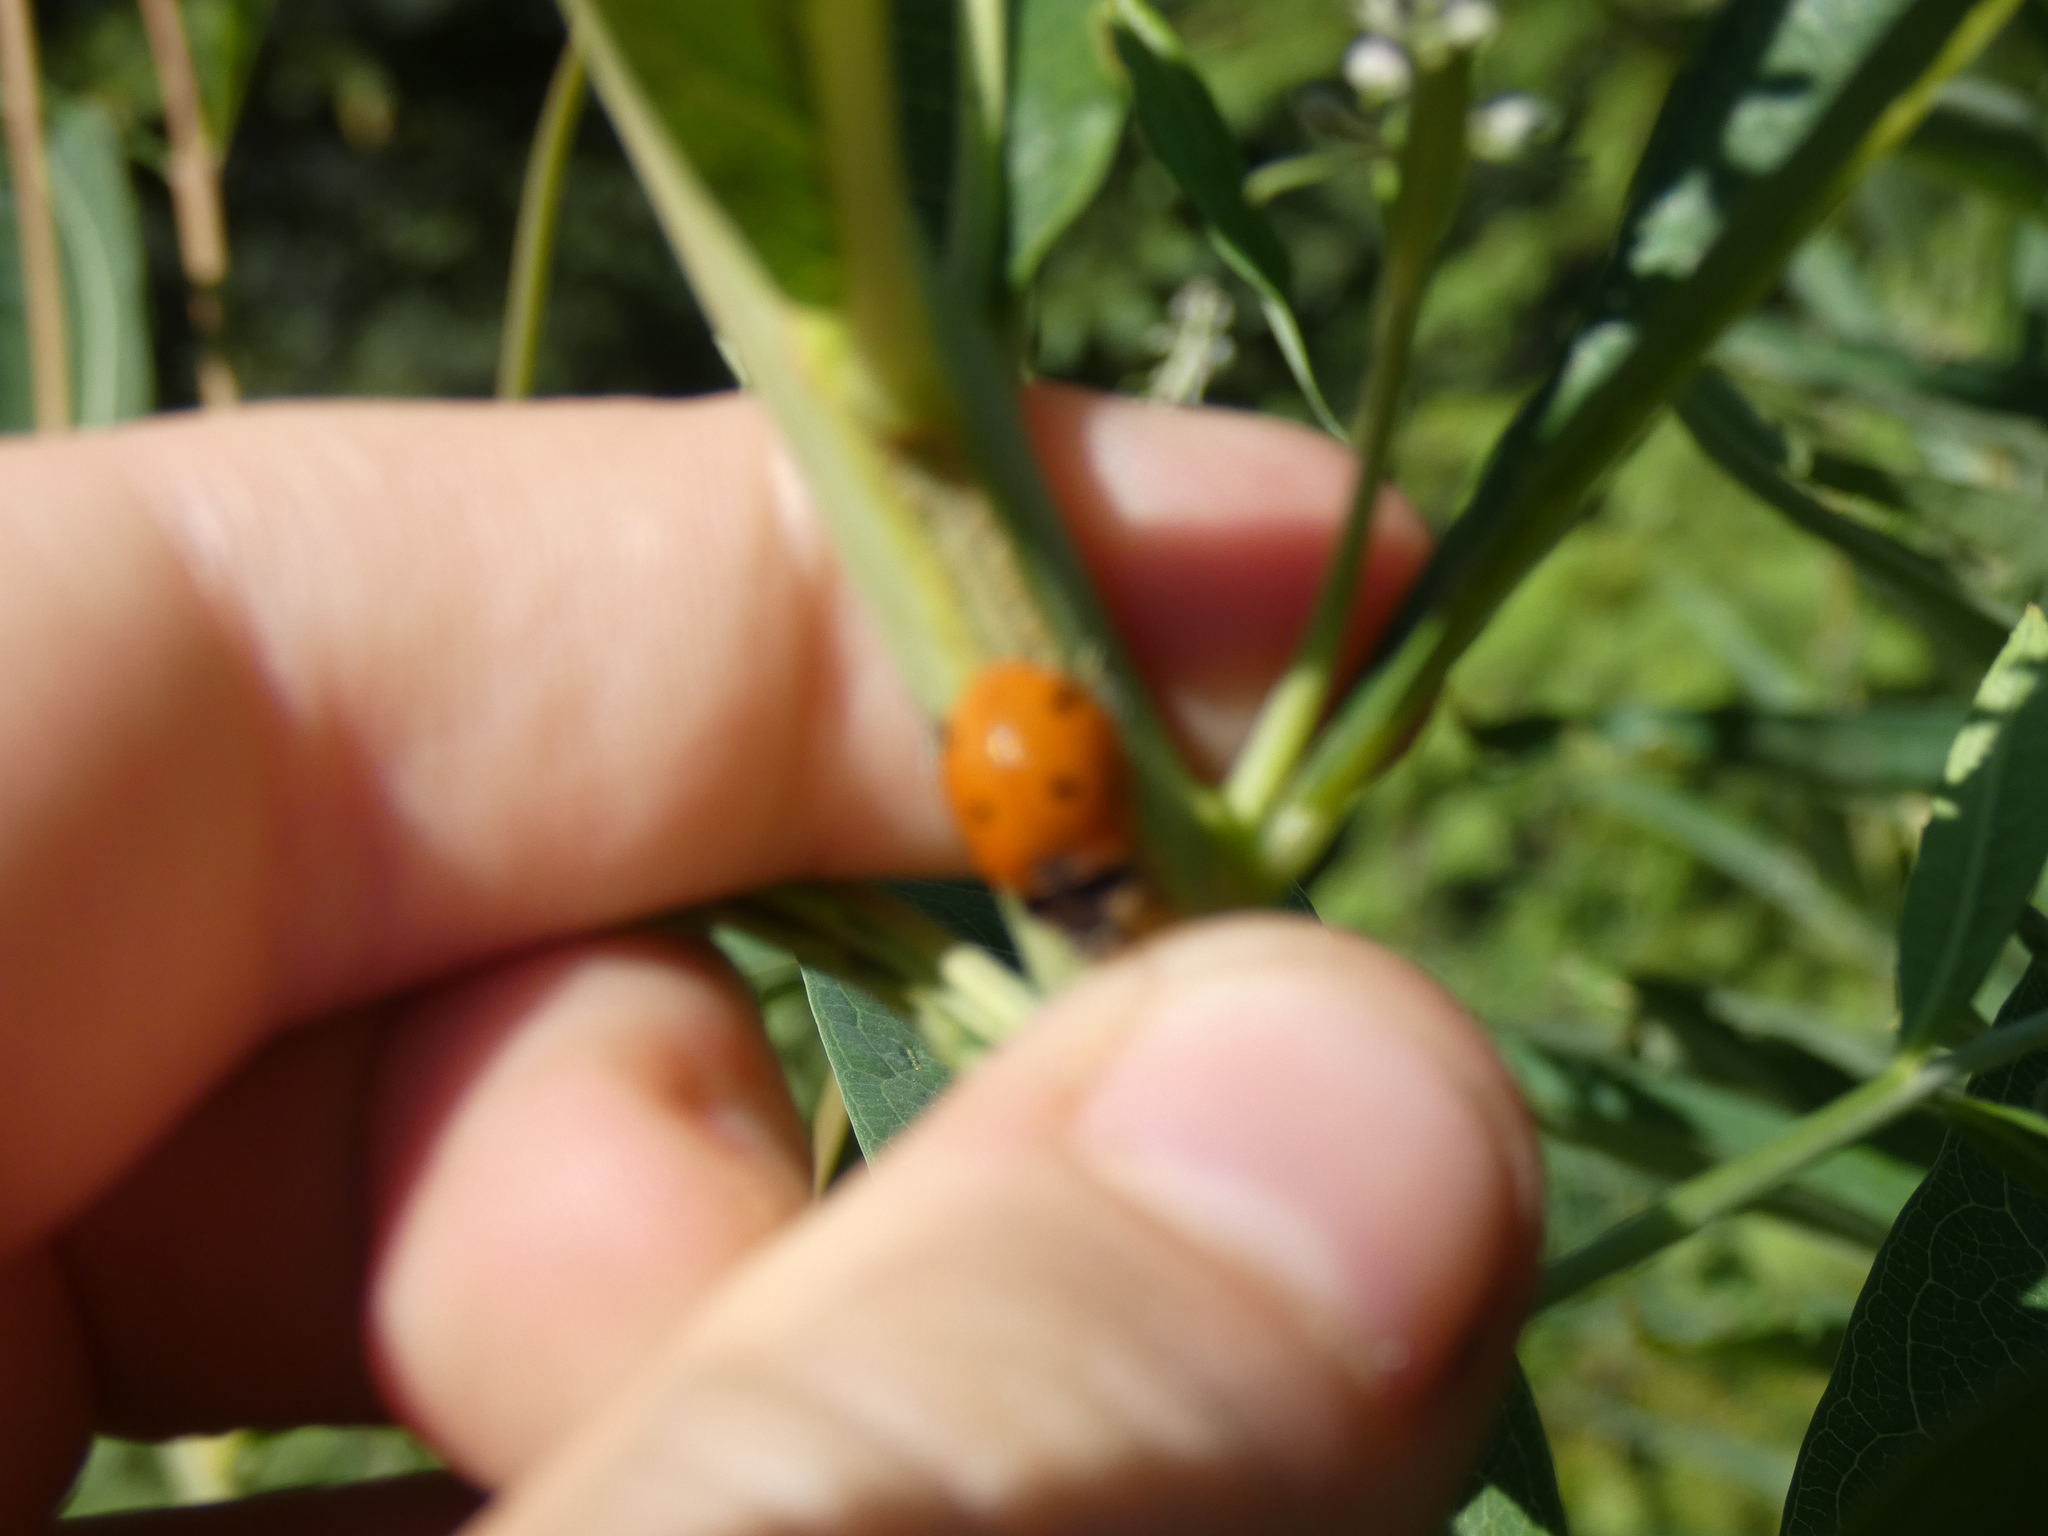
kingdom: Animalia
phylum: Arthropoda
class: Insecta
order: Coleoptera
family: Coccinellidae
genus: Coccinella
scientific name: Coccinella septempunctata
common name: Sevenspotted lady beetle
